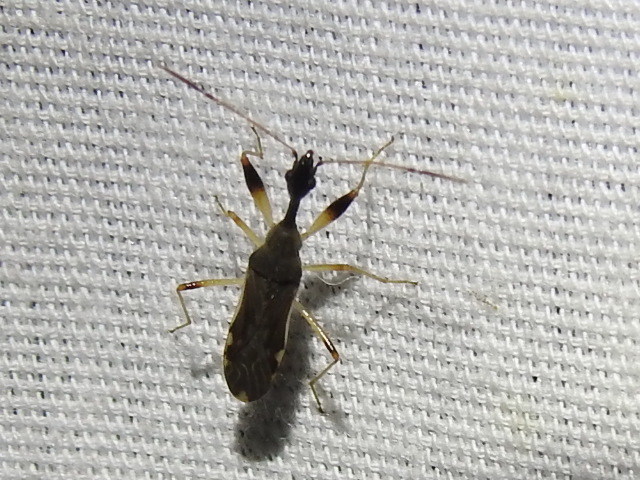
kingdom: Animalia
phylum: Arthropoda
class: Insecta
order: Hemiptera
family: Rhyparochromidae
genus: Myodocha
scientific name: Myodocha serripes
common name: Long-necked seed bug
